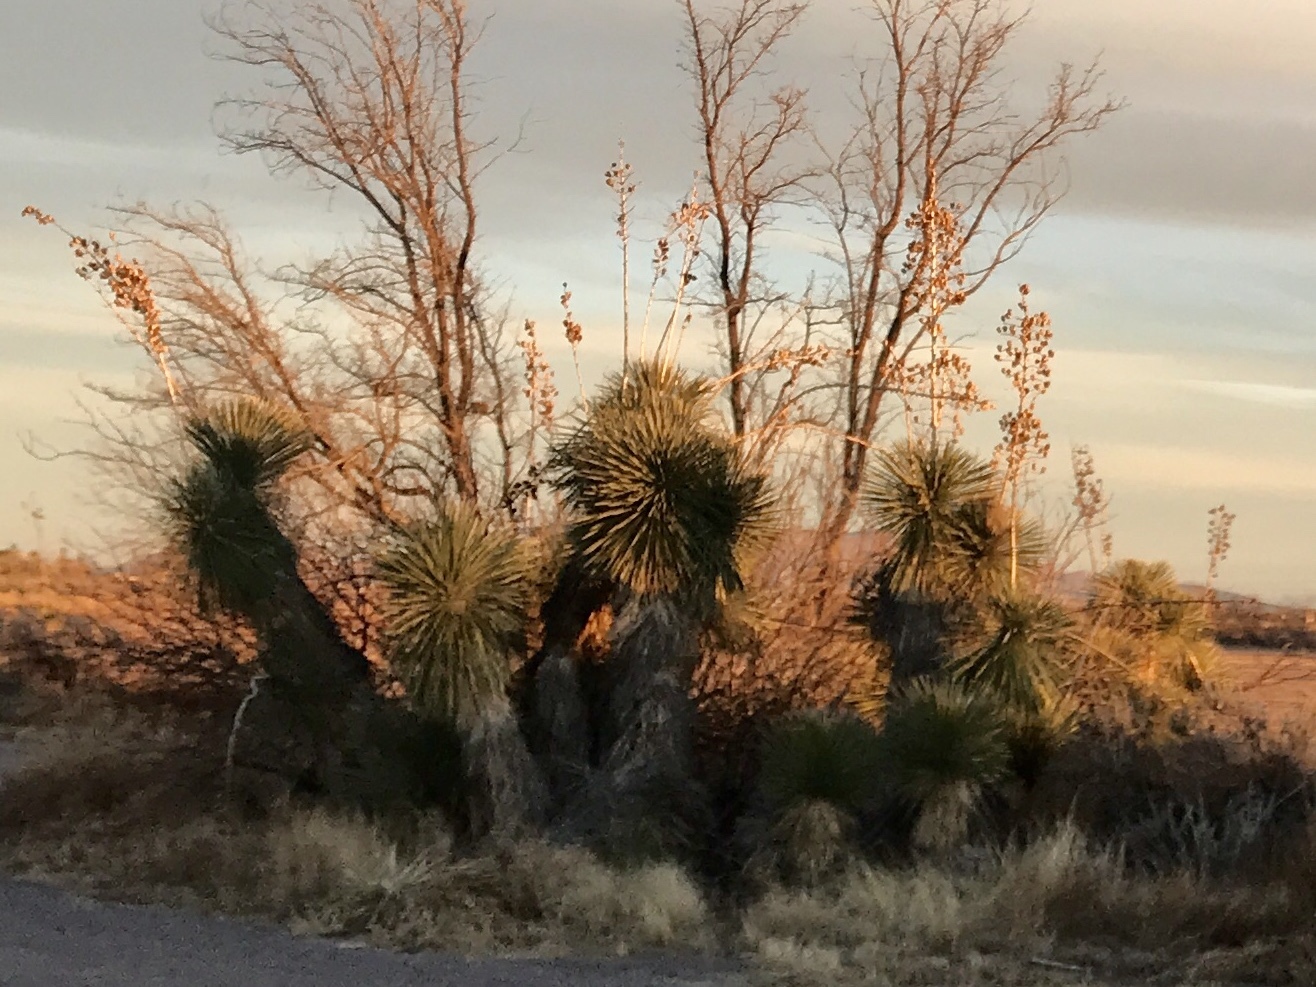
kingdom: Plantae
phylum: Tracheophyta
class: Liliopsida
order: Asparagales
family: Asparagaceae
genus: Yucca
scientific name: Yucca elata
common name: Palmella
